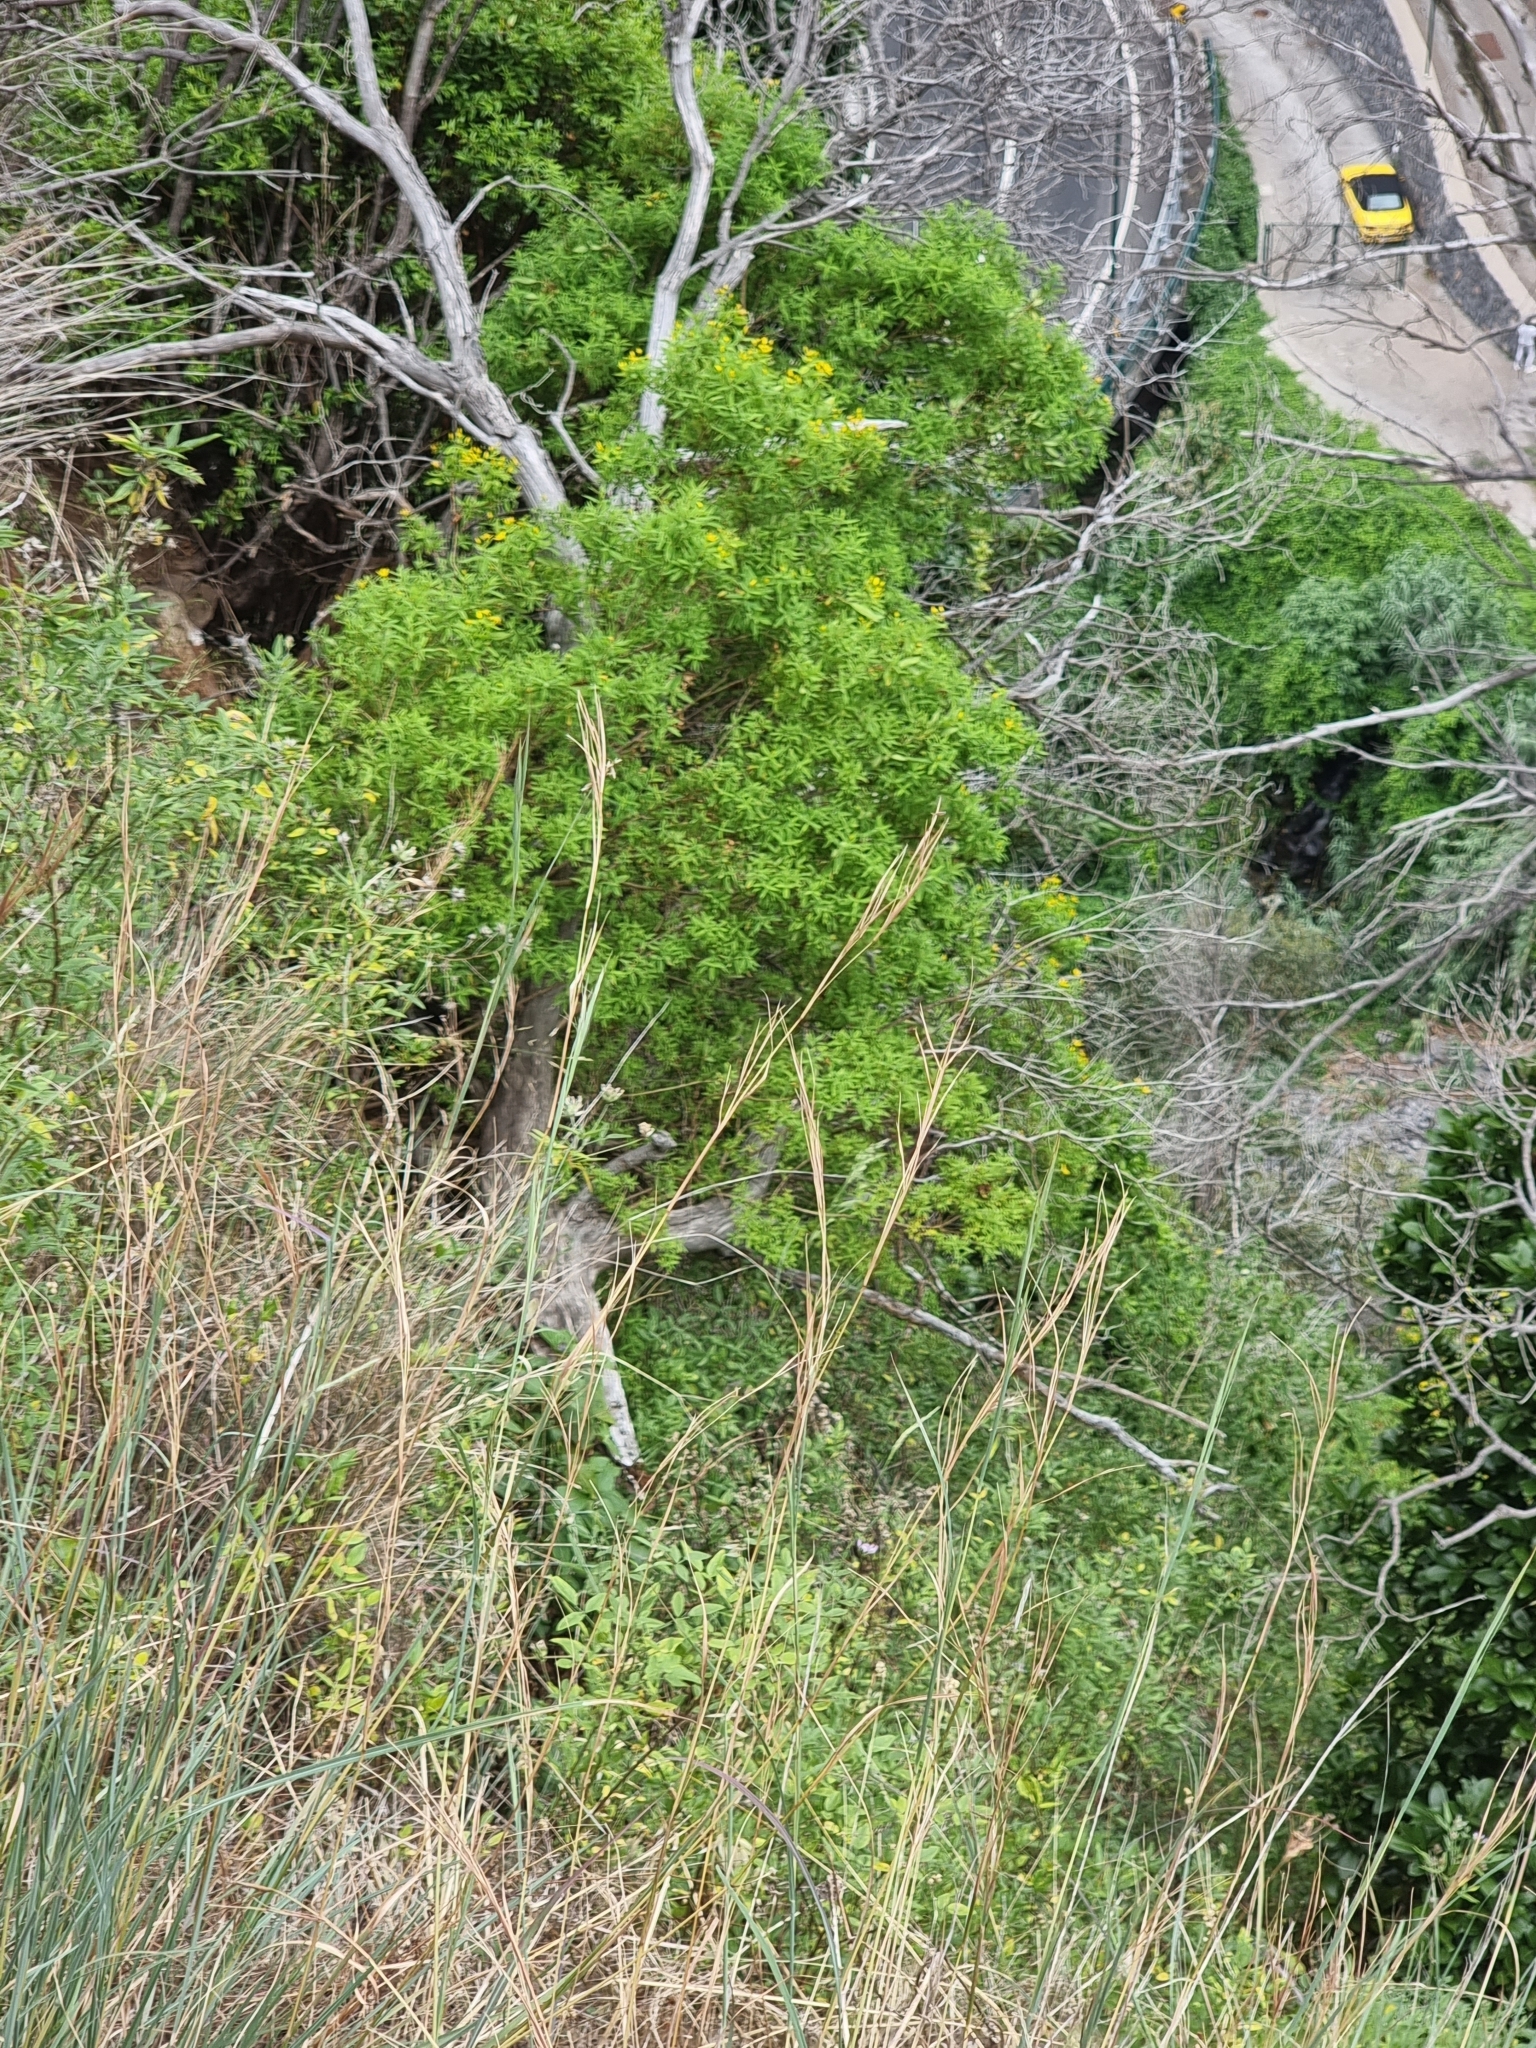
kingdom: Plantae
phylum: Tracheophyta
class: Magnoliopsida
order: Malpighiales
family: Hypericaceae
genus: Hypericum
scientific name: Hypericum canariense
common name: Canary island st. johnswort
